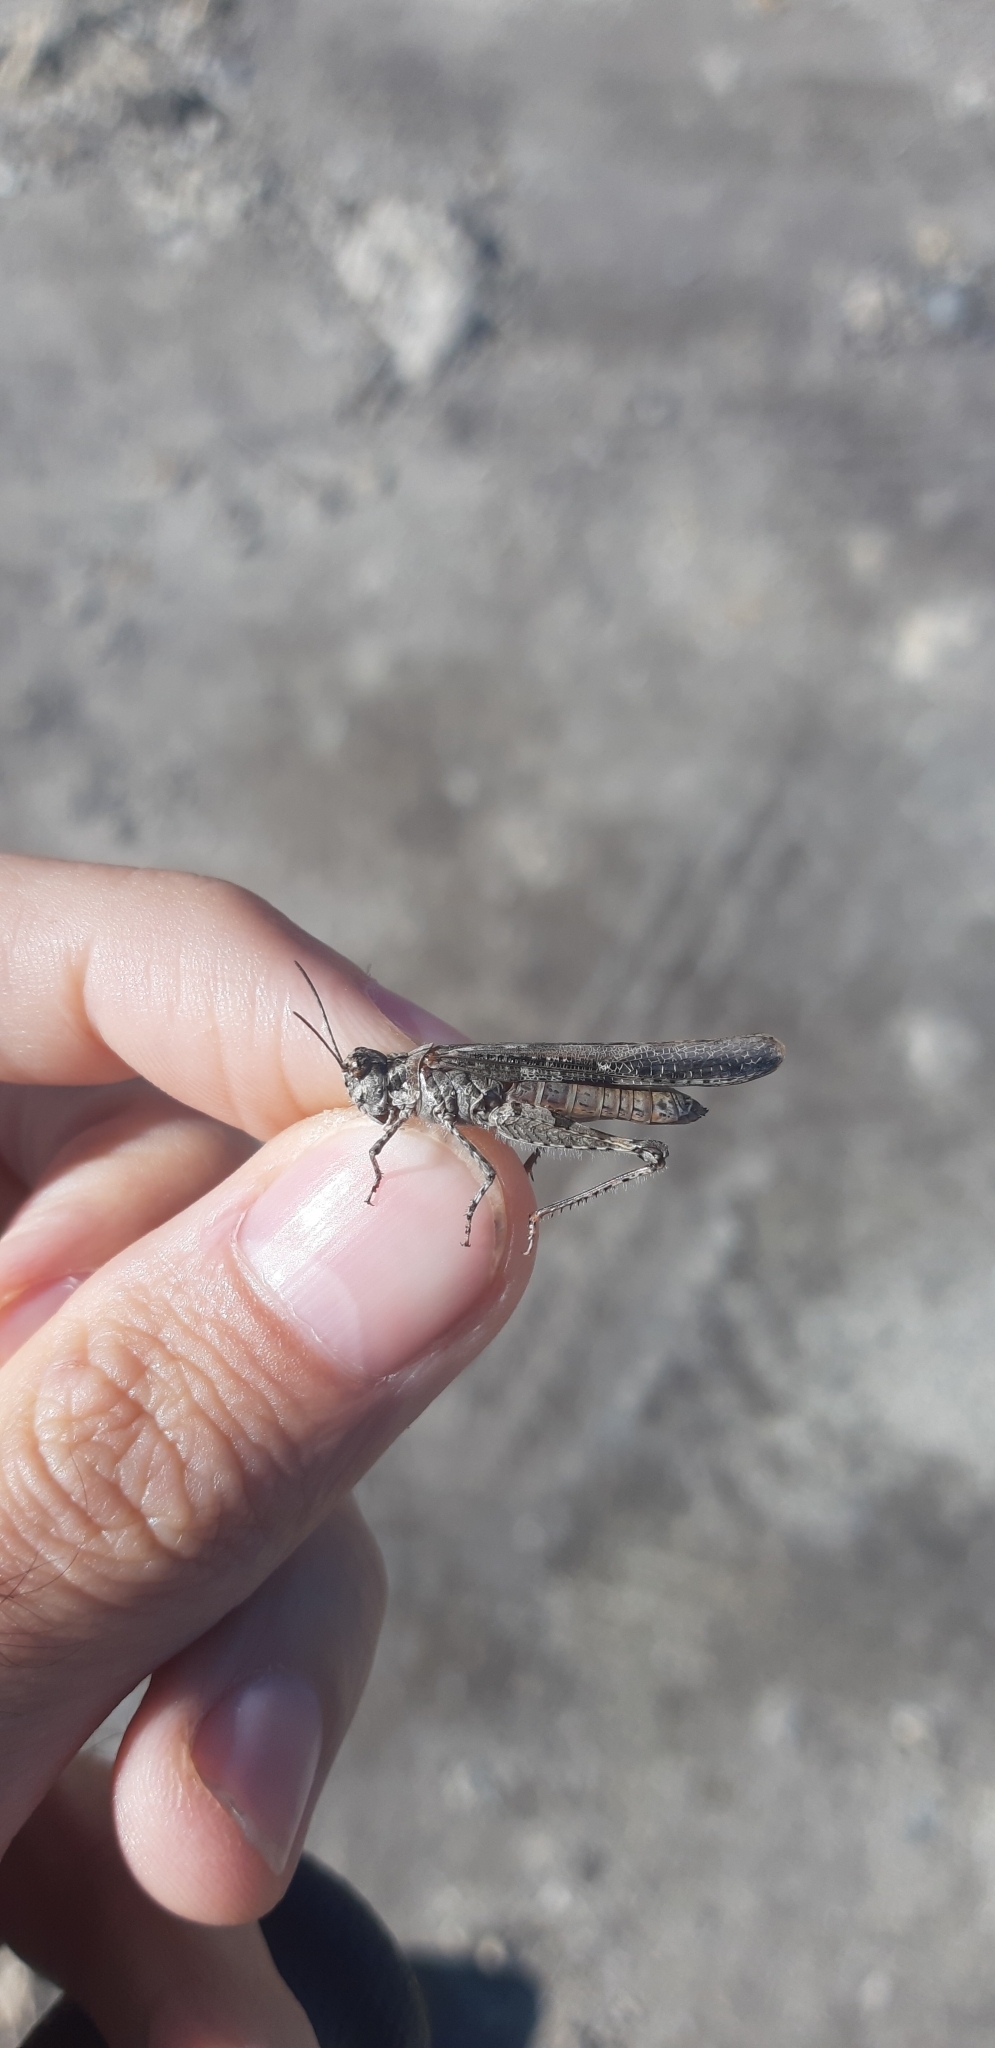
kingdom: Animalia
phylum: Arthropoda
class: Insecta
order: Orthoptera
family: Acrididae
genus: Acrotylus
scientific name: Acrotylus patruelis
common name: Slender burrowing grasshopper
